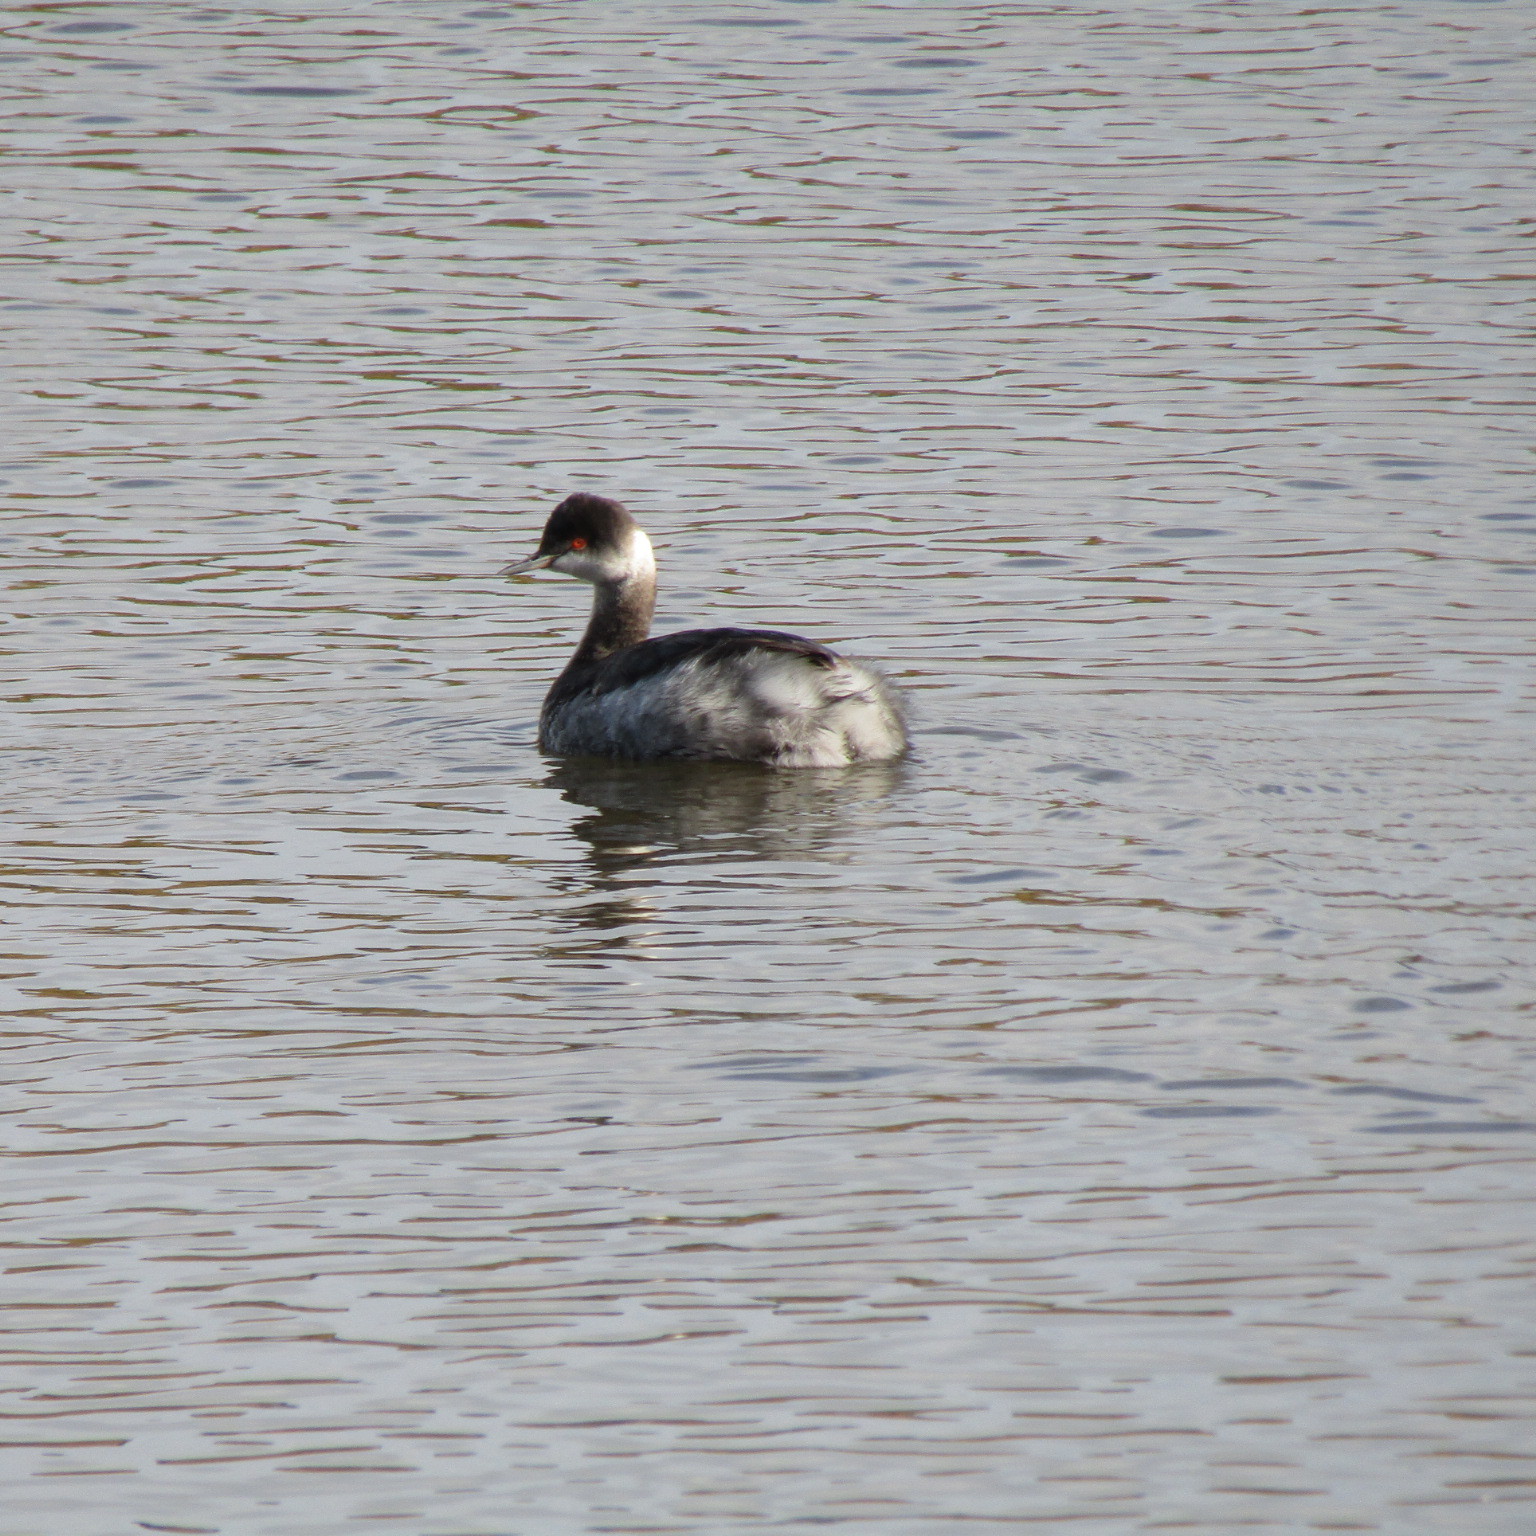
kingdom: Animalia
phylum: Chordata
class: Aves
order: Podicipediformes
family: Podicipedidae
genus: Podiceps
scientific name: Podiceps nigricollis
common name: Black-necked grebe
